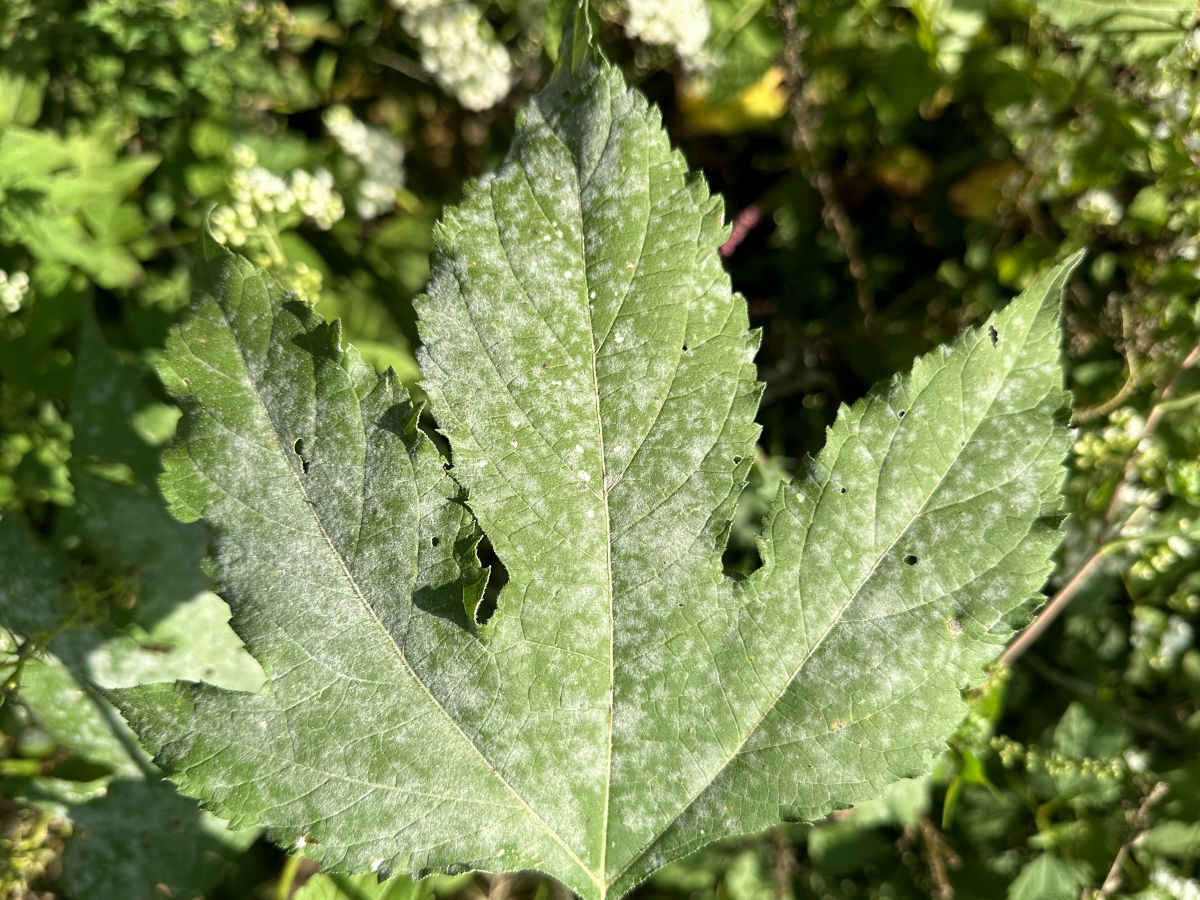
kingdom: Fungi
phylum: Ascomycota
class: Leotiomycetes
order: Helotiales
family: Erysiphaceae
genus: Golovinomyces
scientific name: Golovinomyces ambrosiae
